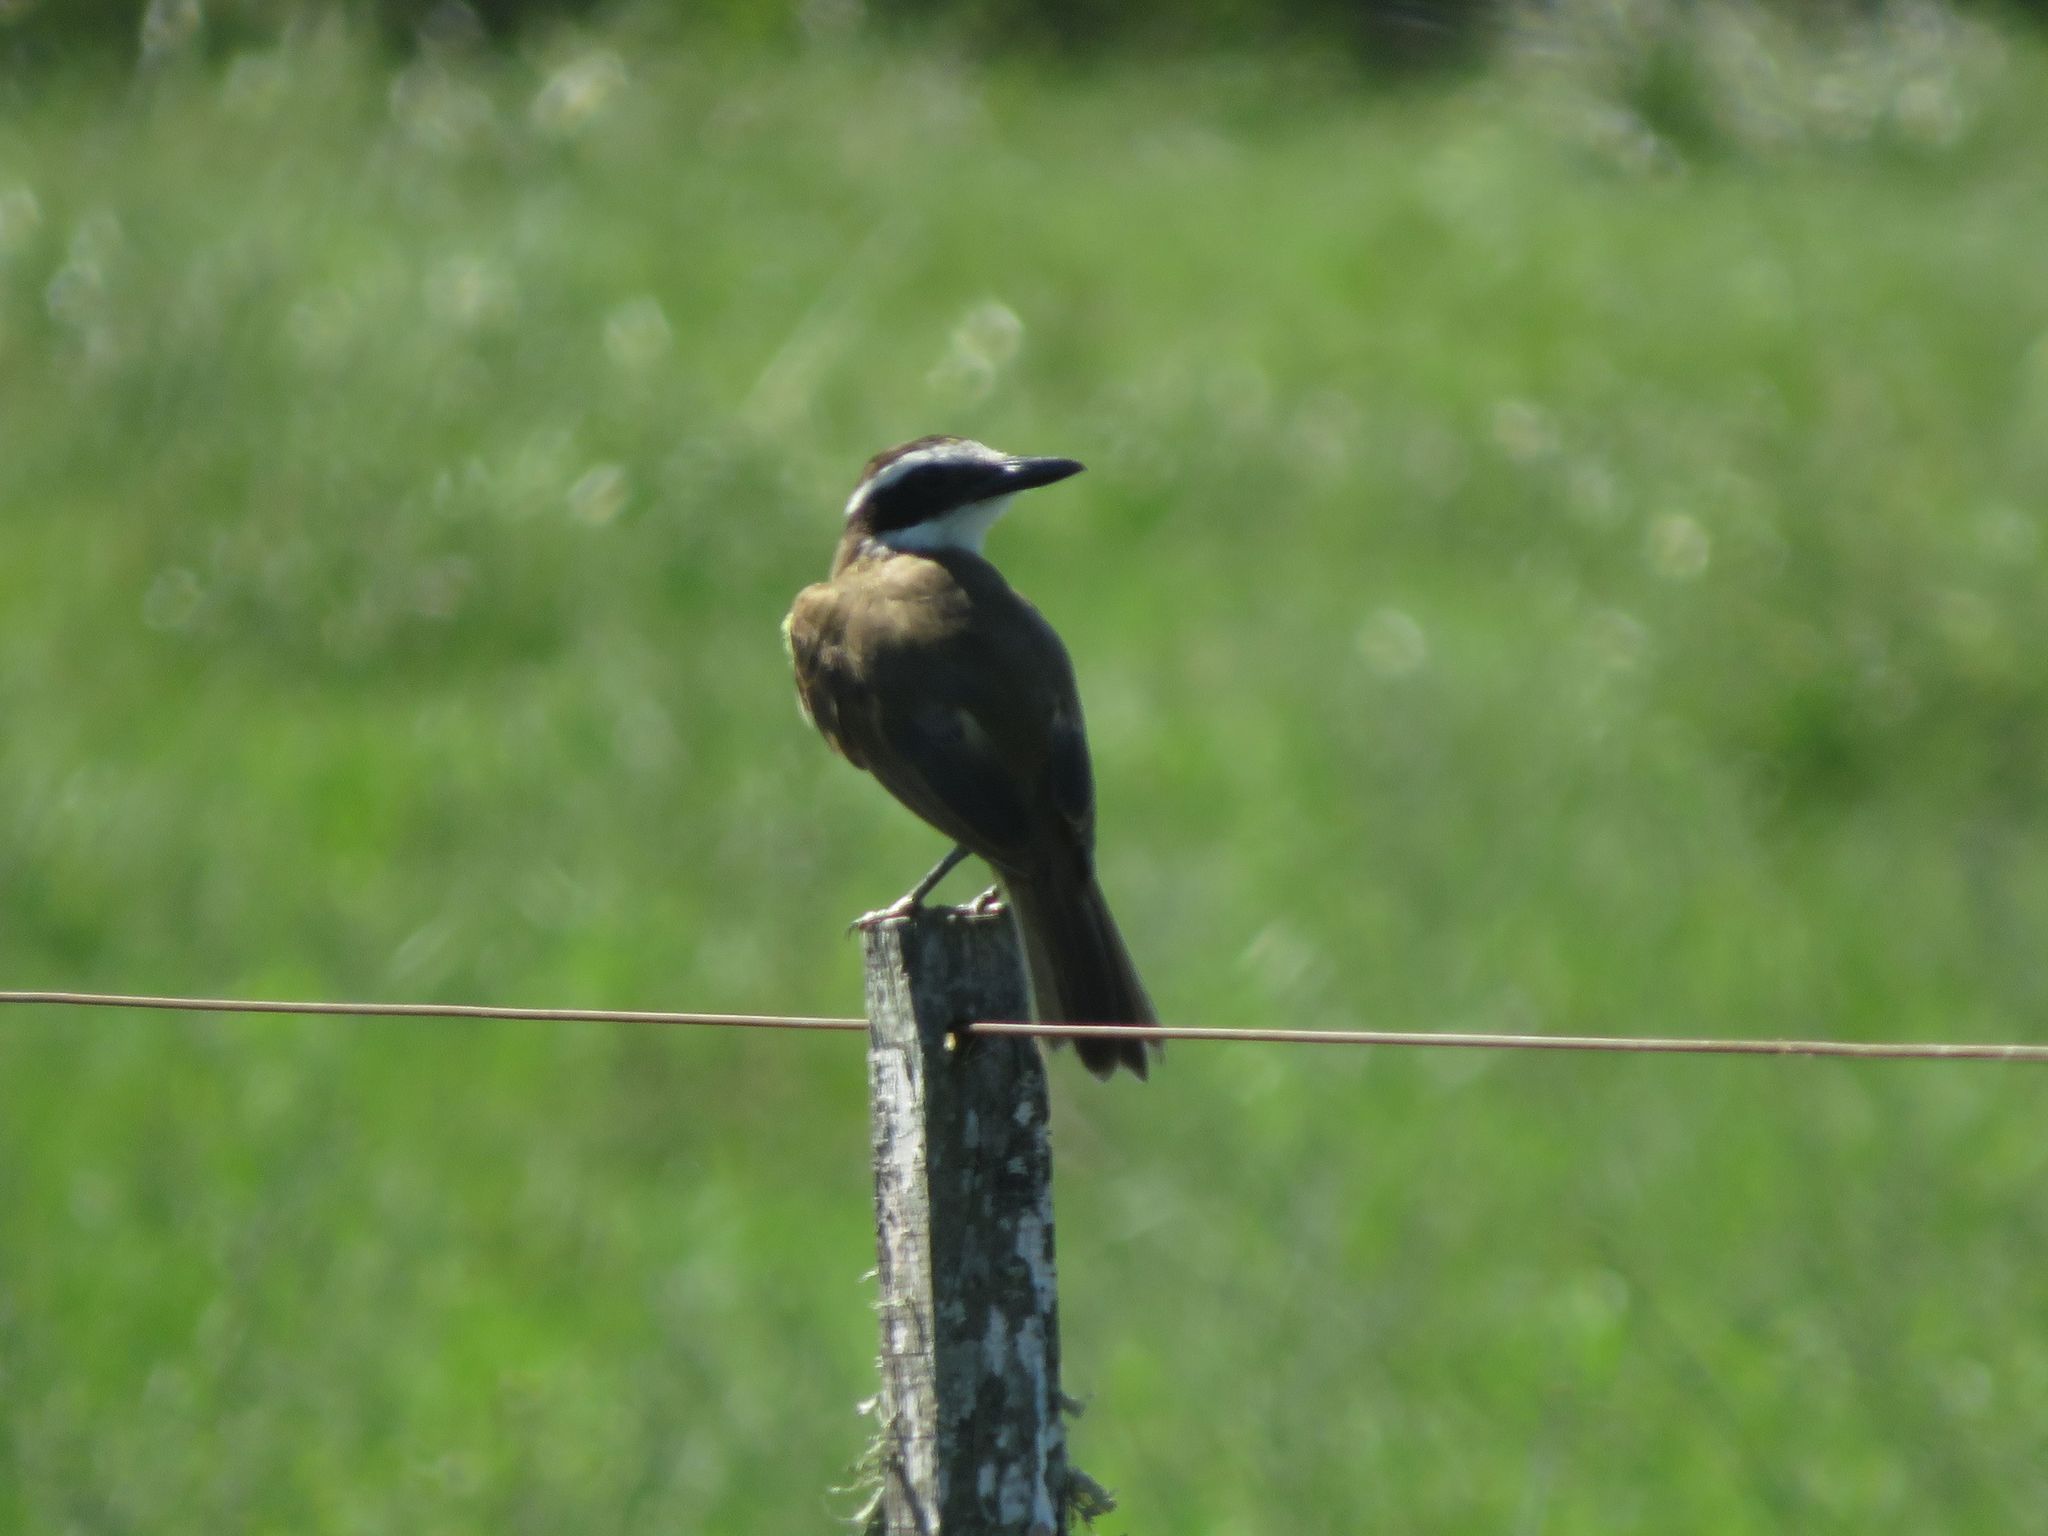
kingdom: Animalia
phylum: Chordata
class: Aves
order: Passeriformes
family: Tyrannidae
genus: Pitangus
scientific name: Pitangus sulphuratus
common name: Great kiskadee
